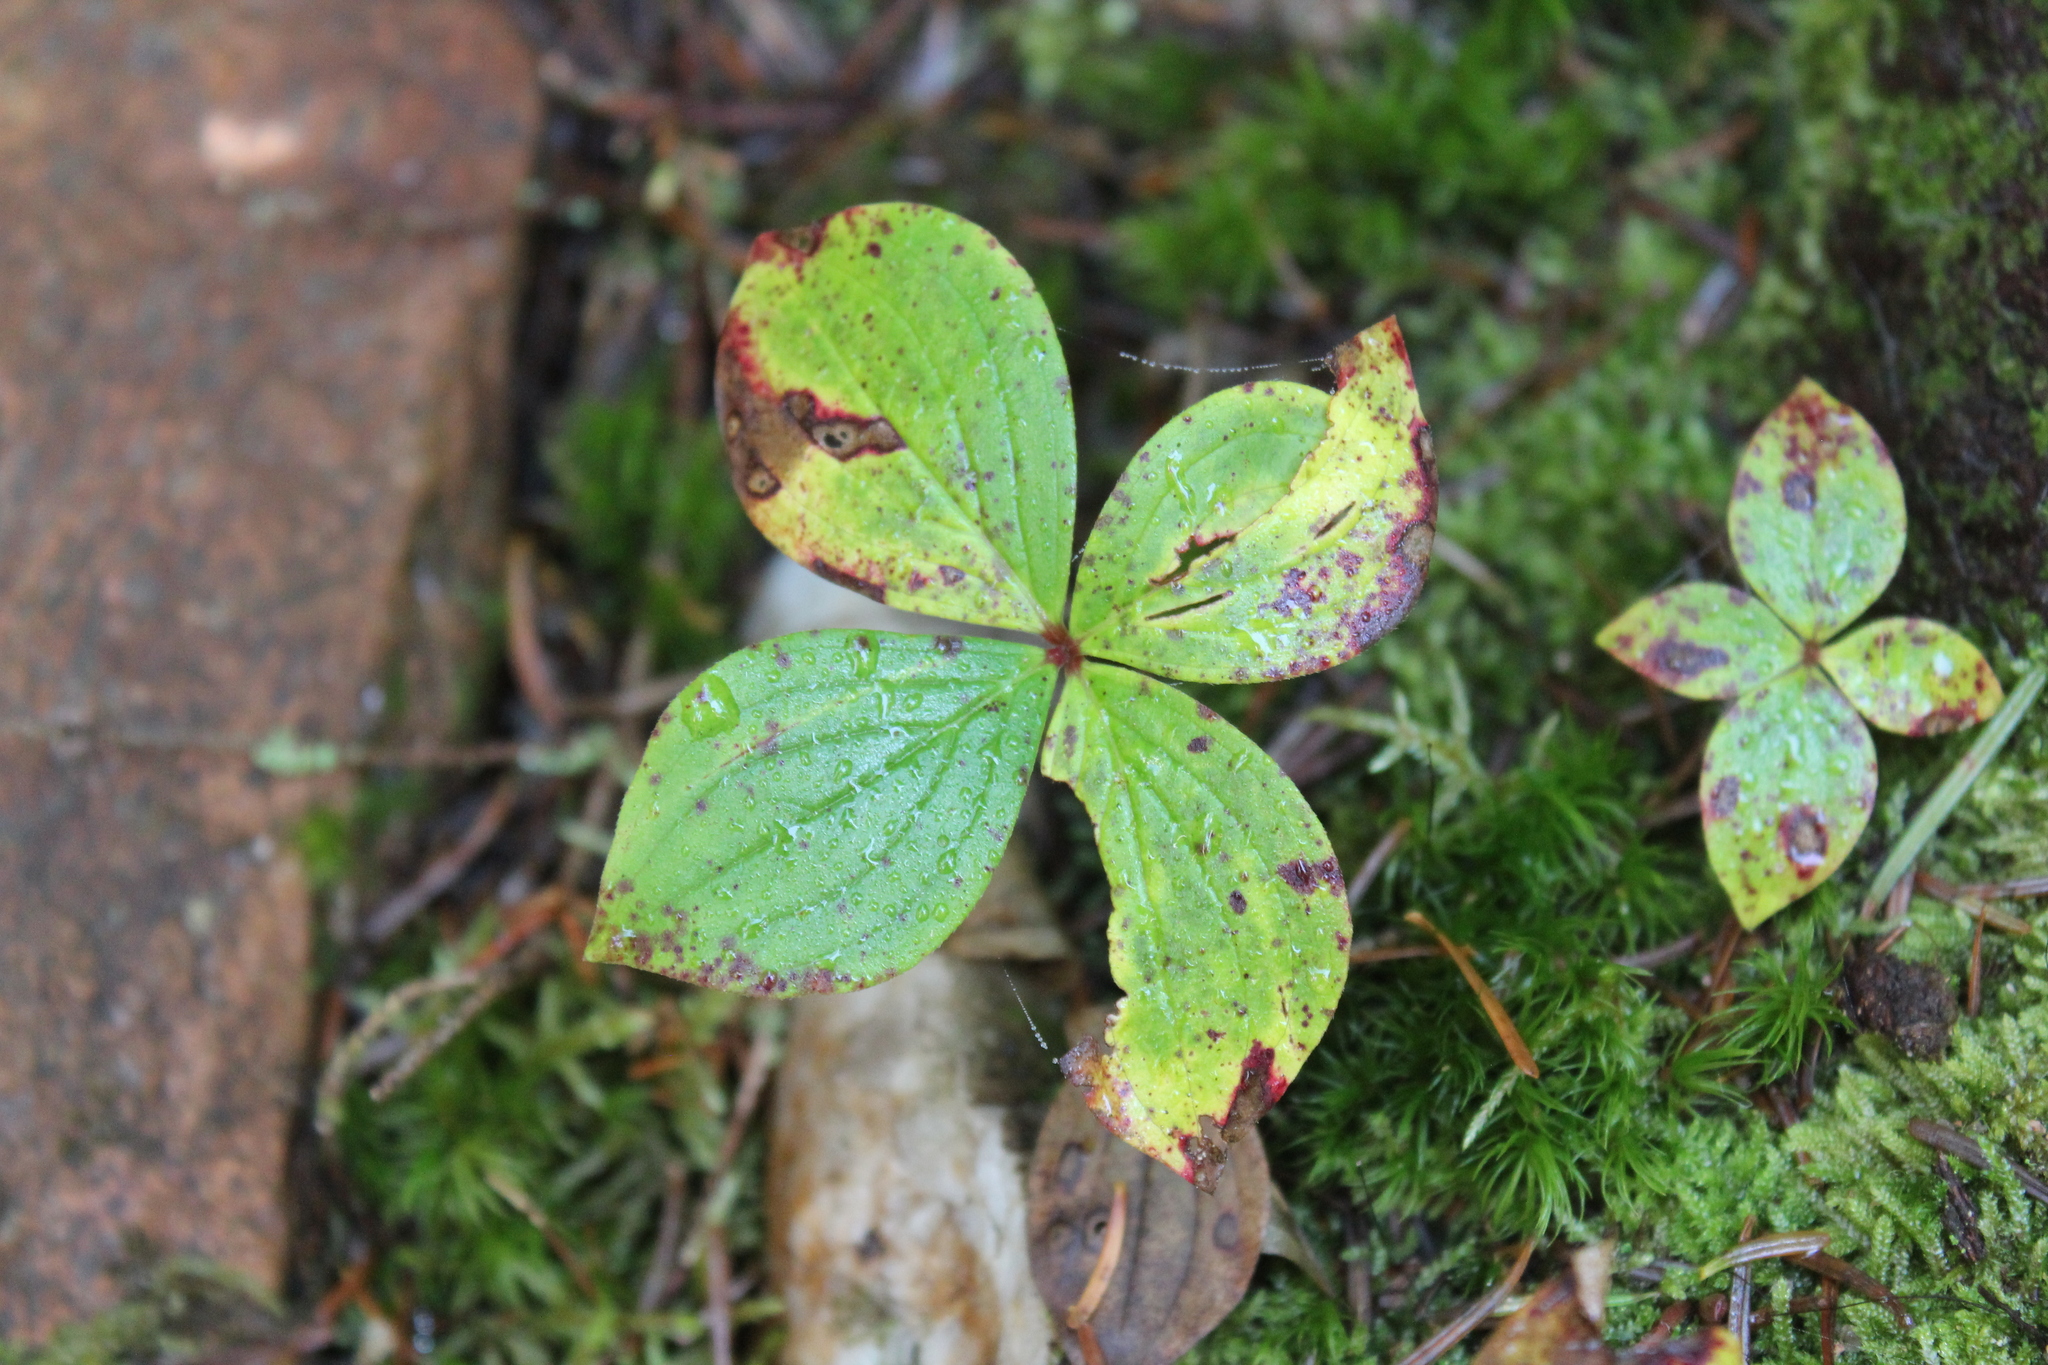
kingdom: Plantae
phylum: Tracheophyta
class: Magnoliopsida
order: Cornales
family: Cornaceae
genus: Cornus
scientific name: Cornus canadensis
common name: Creeping dogwood
